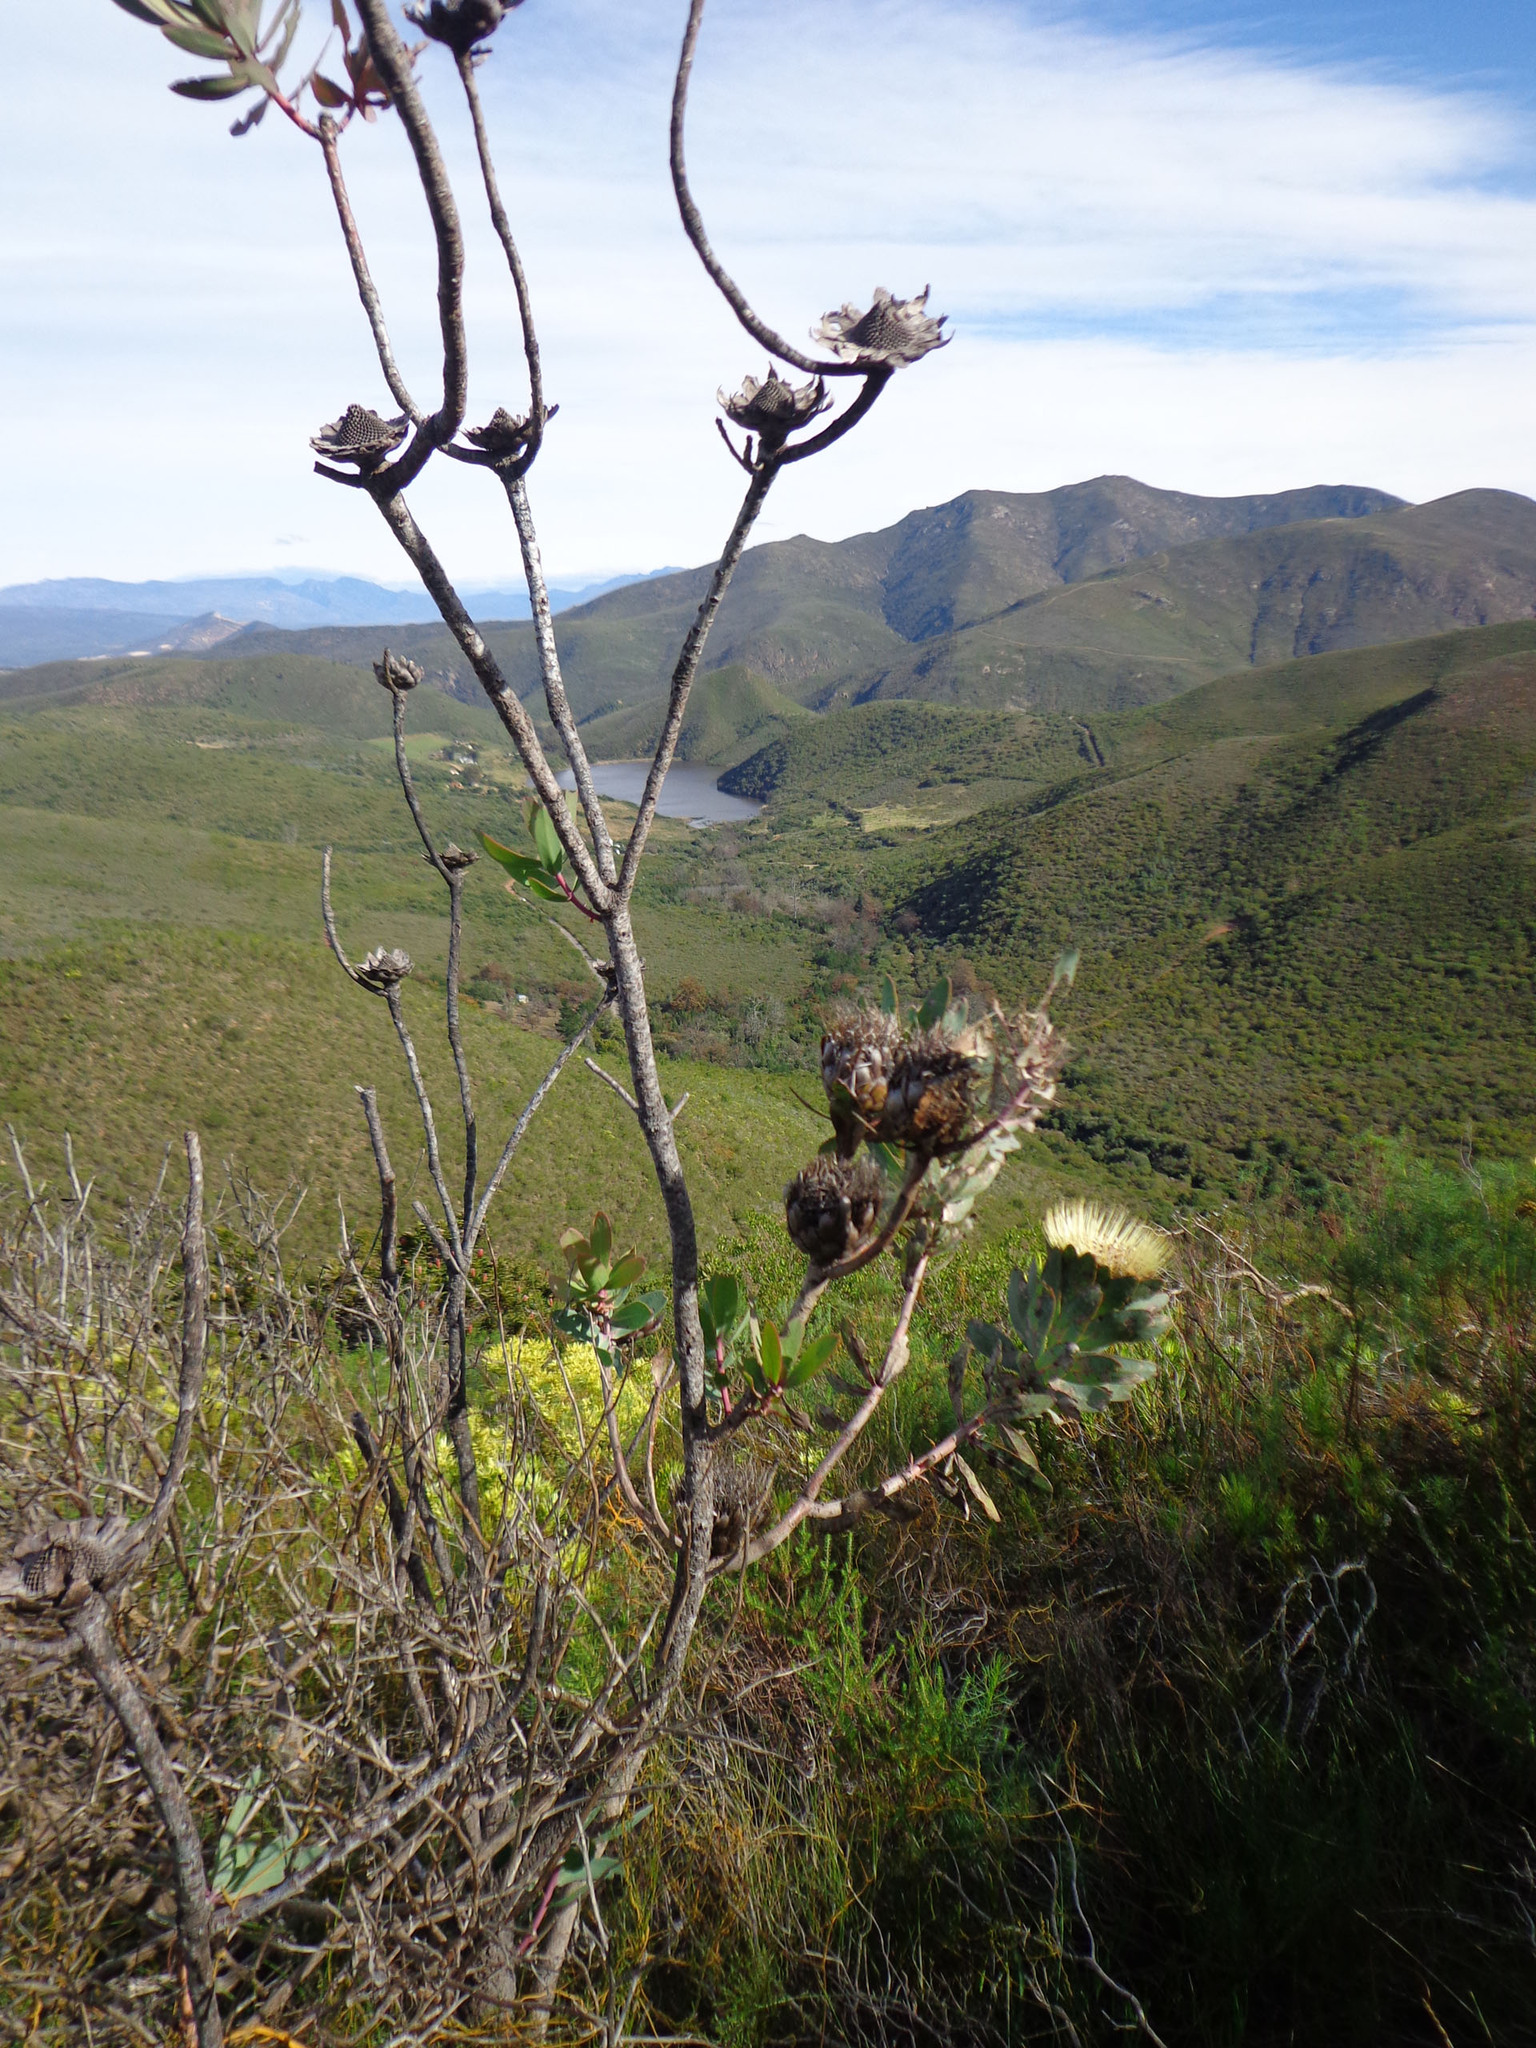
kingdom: Plantae
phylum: Tracheophyta
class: Magnoliopsida
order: Proteales
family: Proteaceae
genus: Protea
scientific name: Protea nitida
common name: Tree protea
